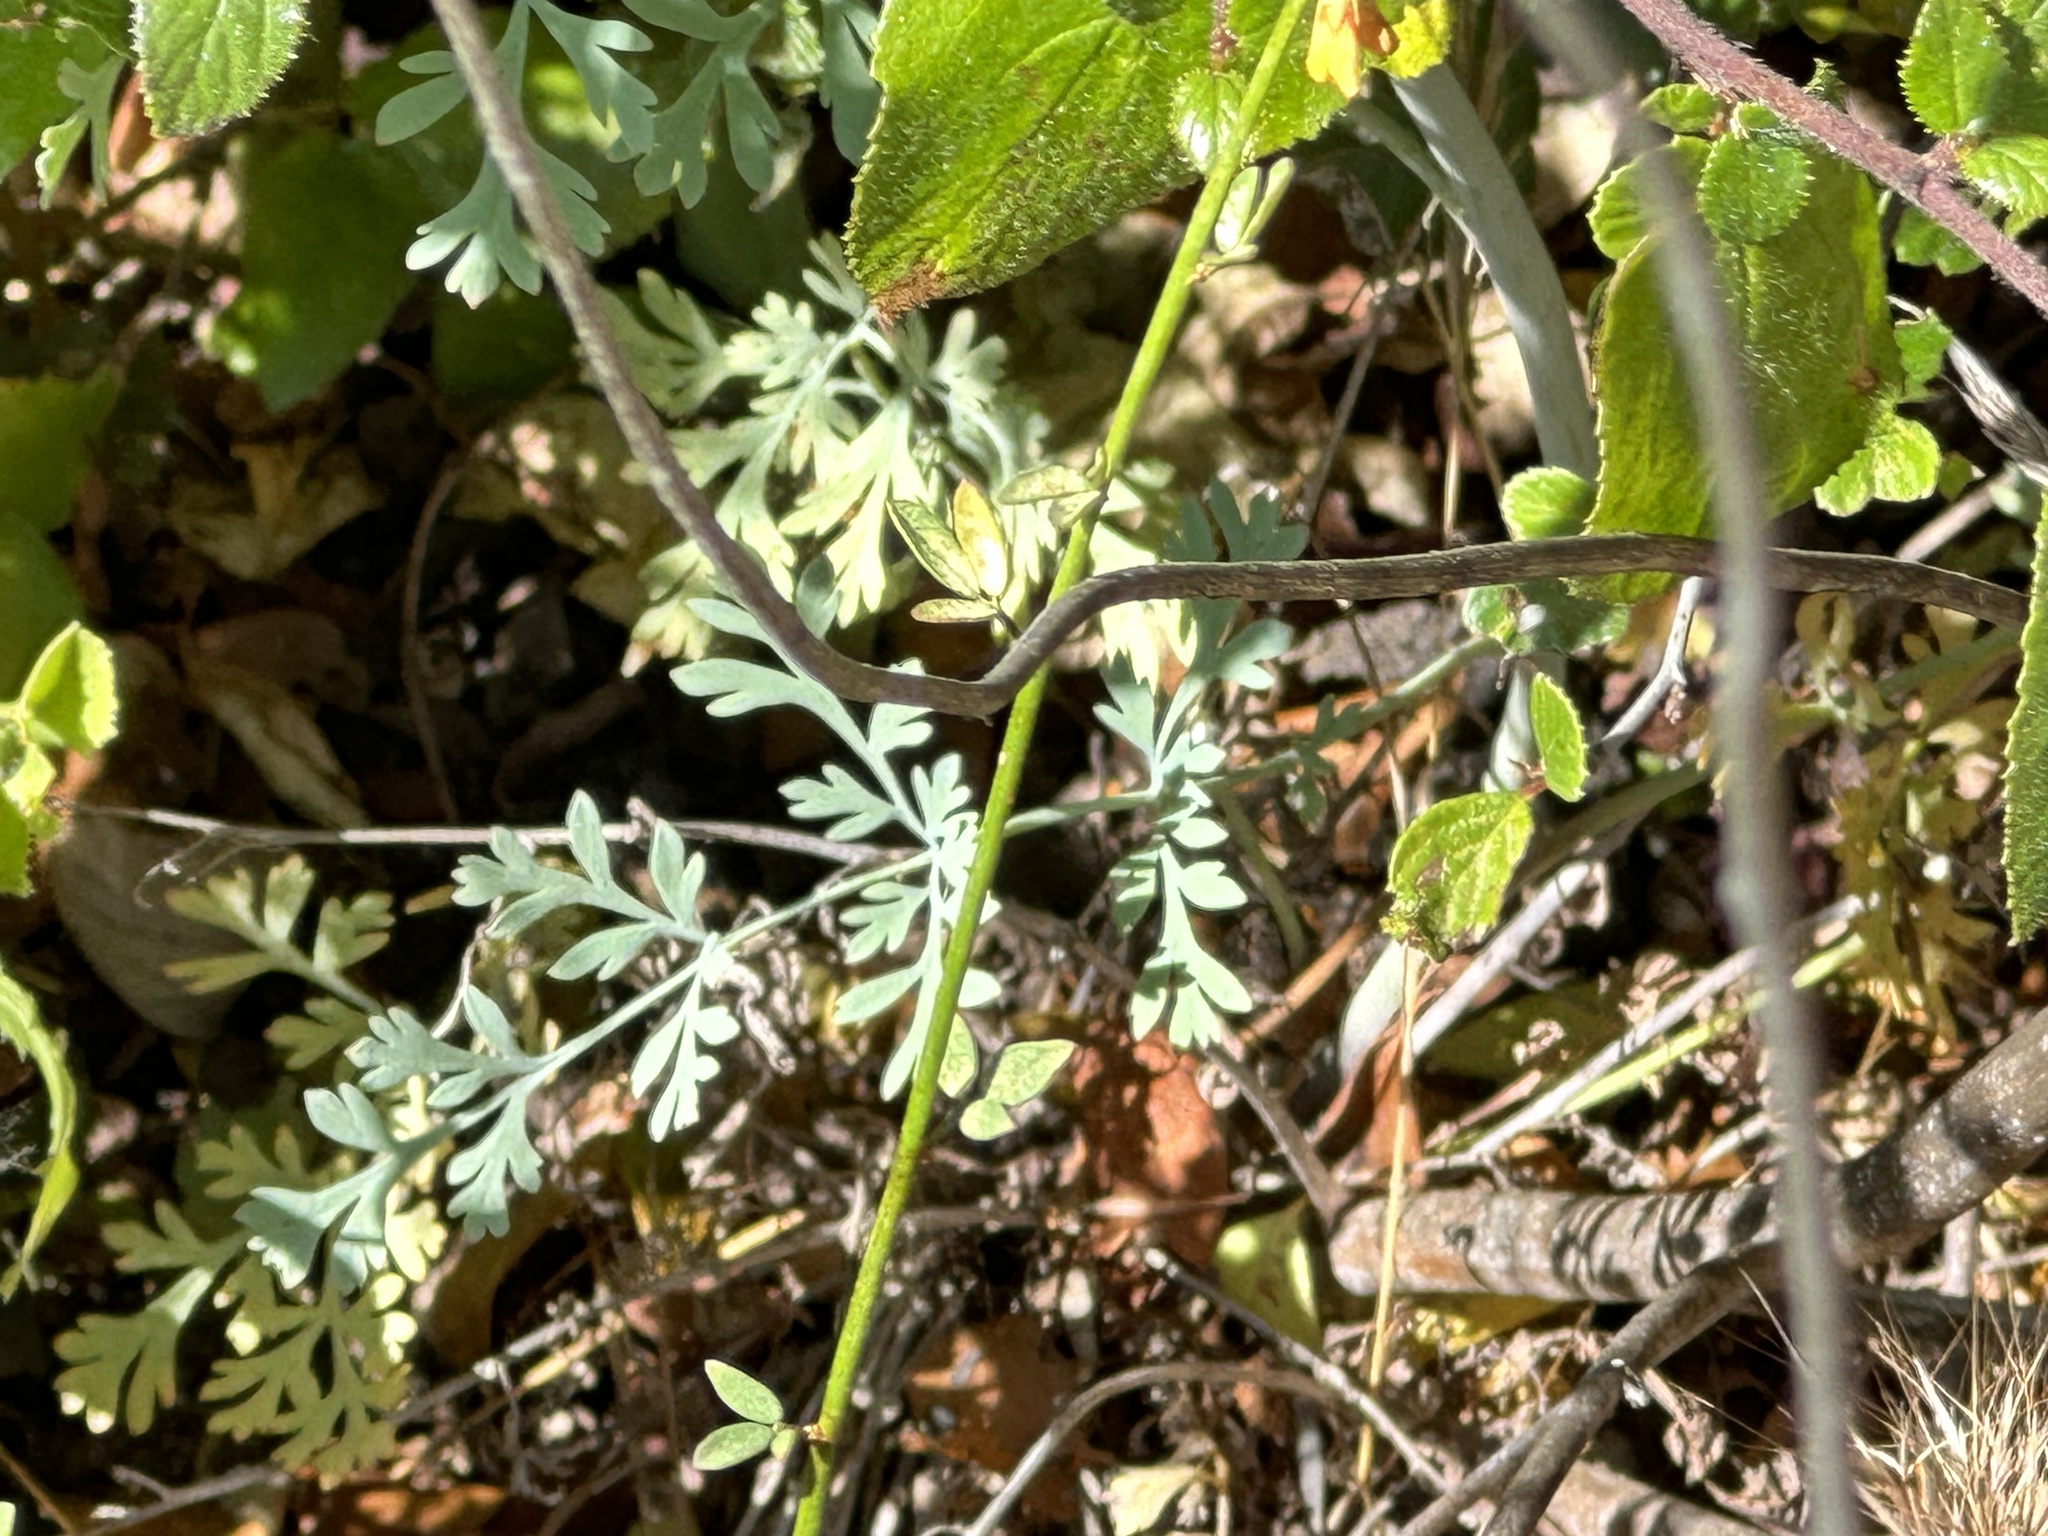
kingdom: Plantae
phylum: Tracheophyta
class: Magnoliopsida
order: Ranunculales
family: Papaveraceae
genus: Ehrendorferia
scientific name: Ehrendorferia chrysantha
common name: Golden eardrops
